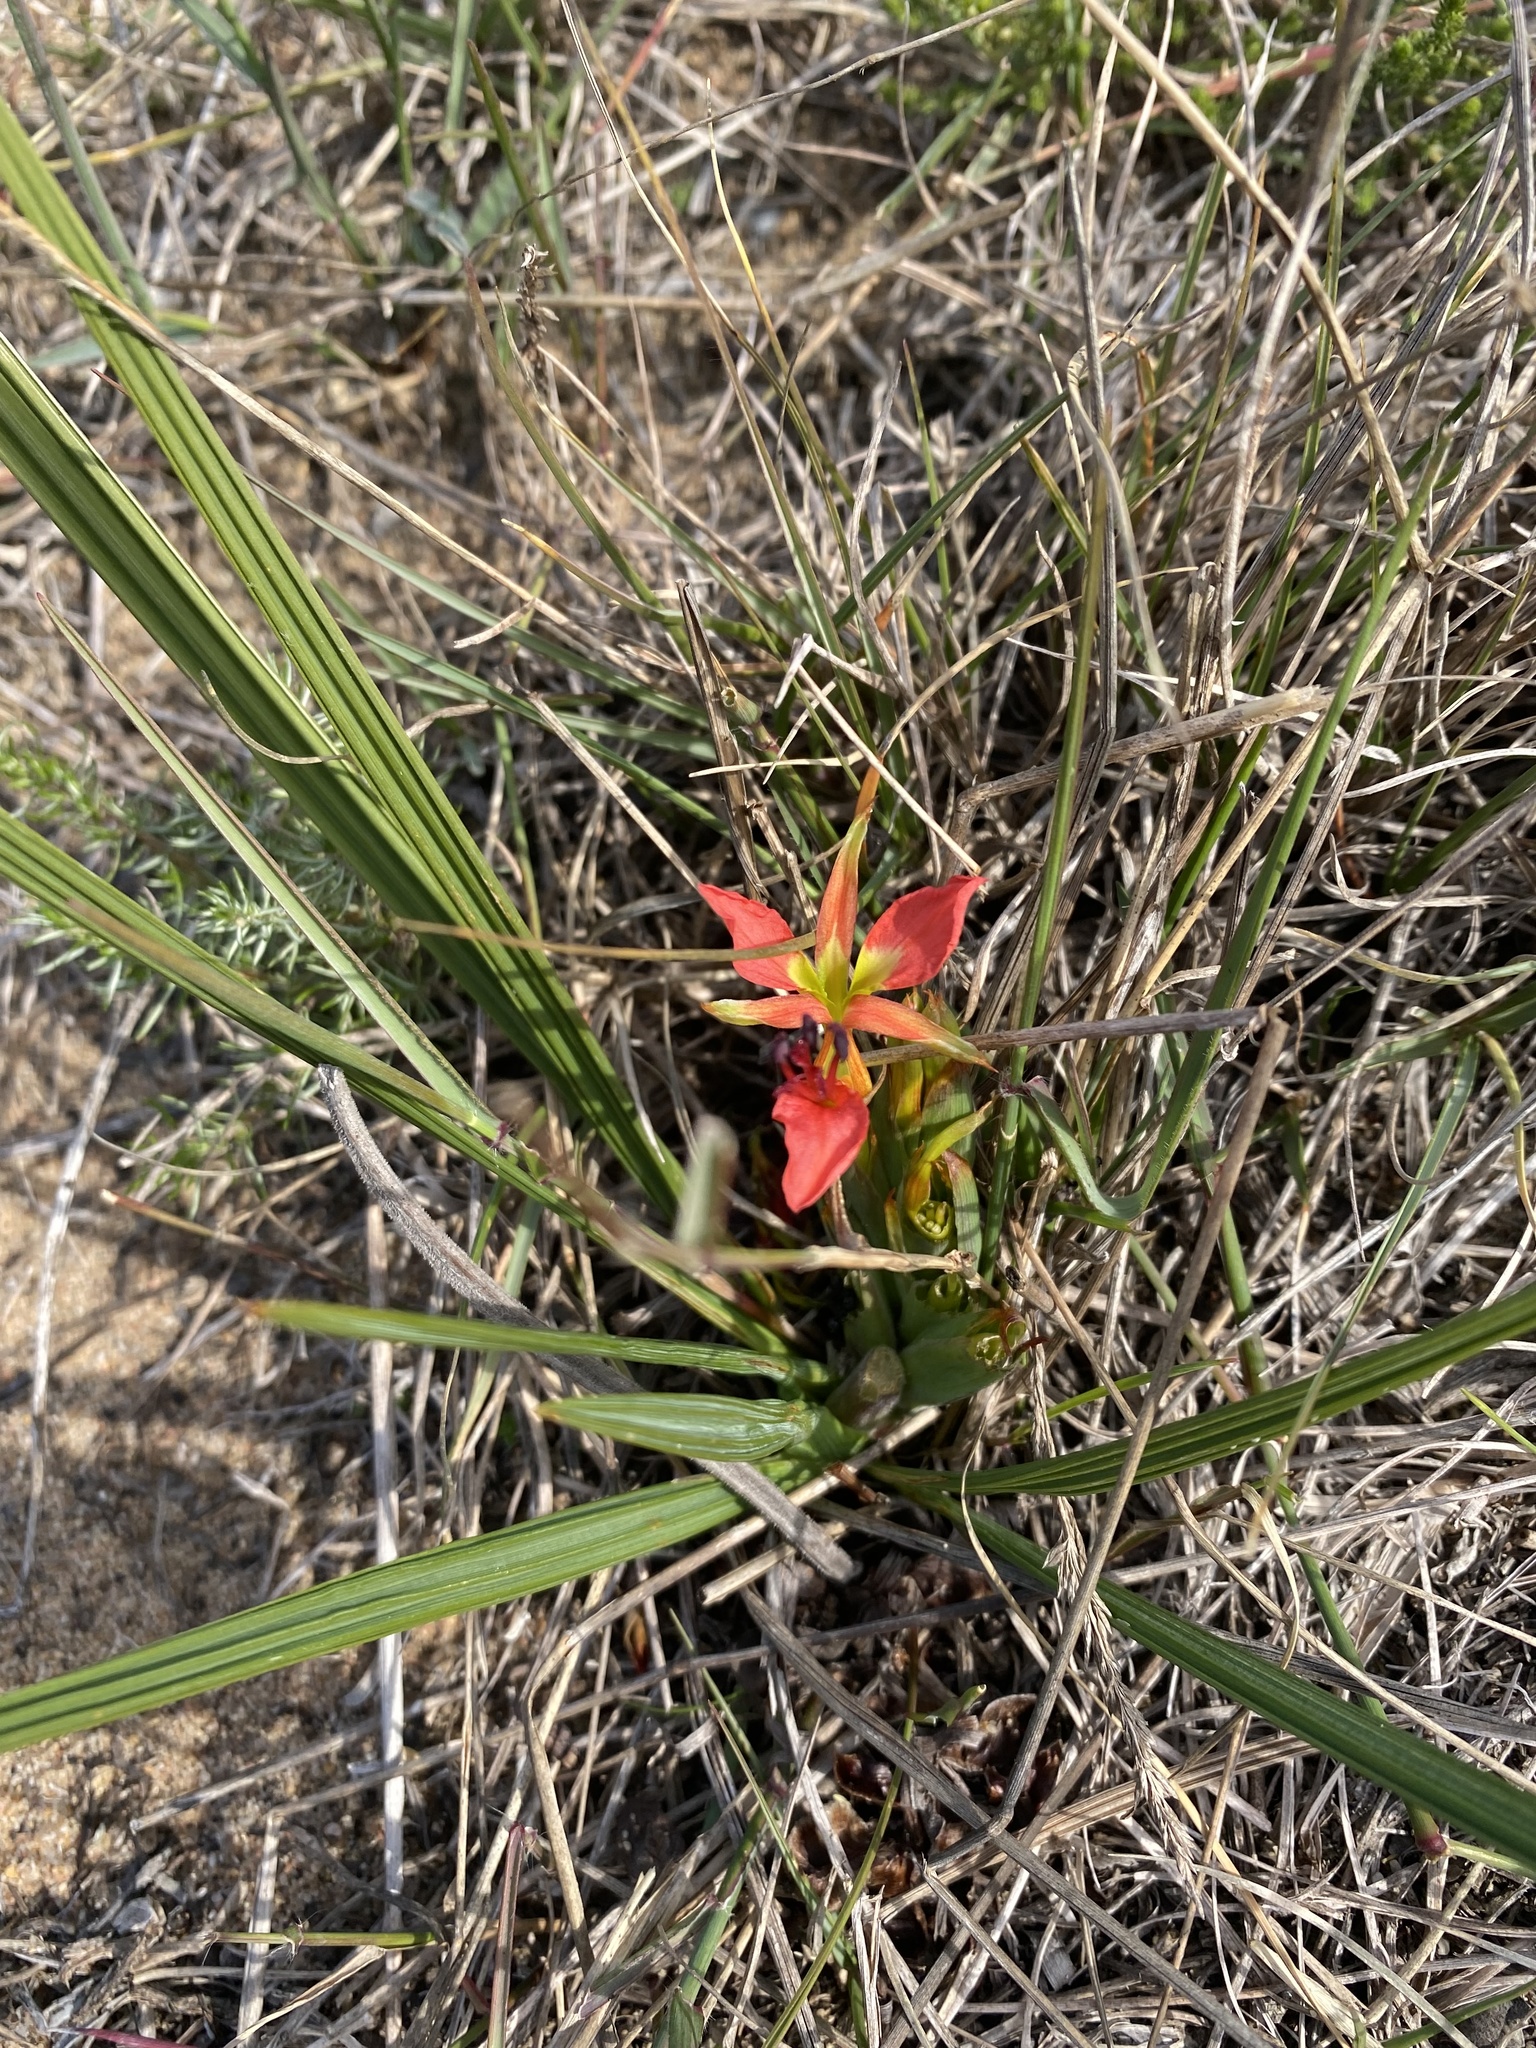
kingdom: Plantae
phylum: Tracheophyta
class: Liliopsida
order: Asparagales
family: Iridaceae
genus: Babiana
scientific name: Babiana ringens
